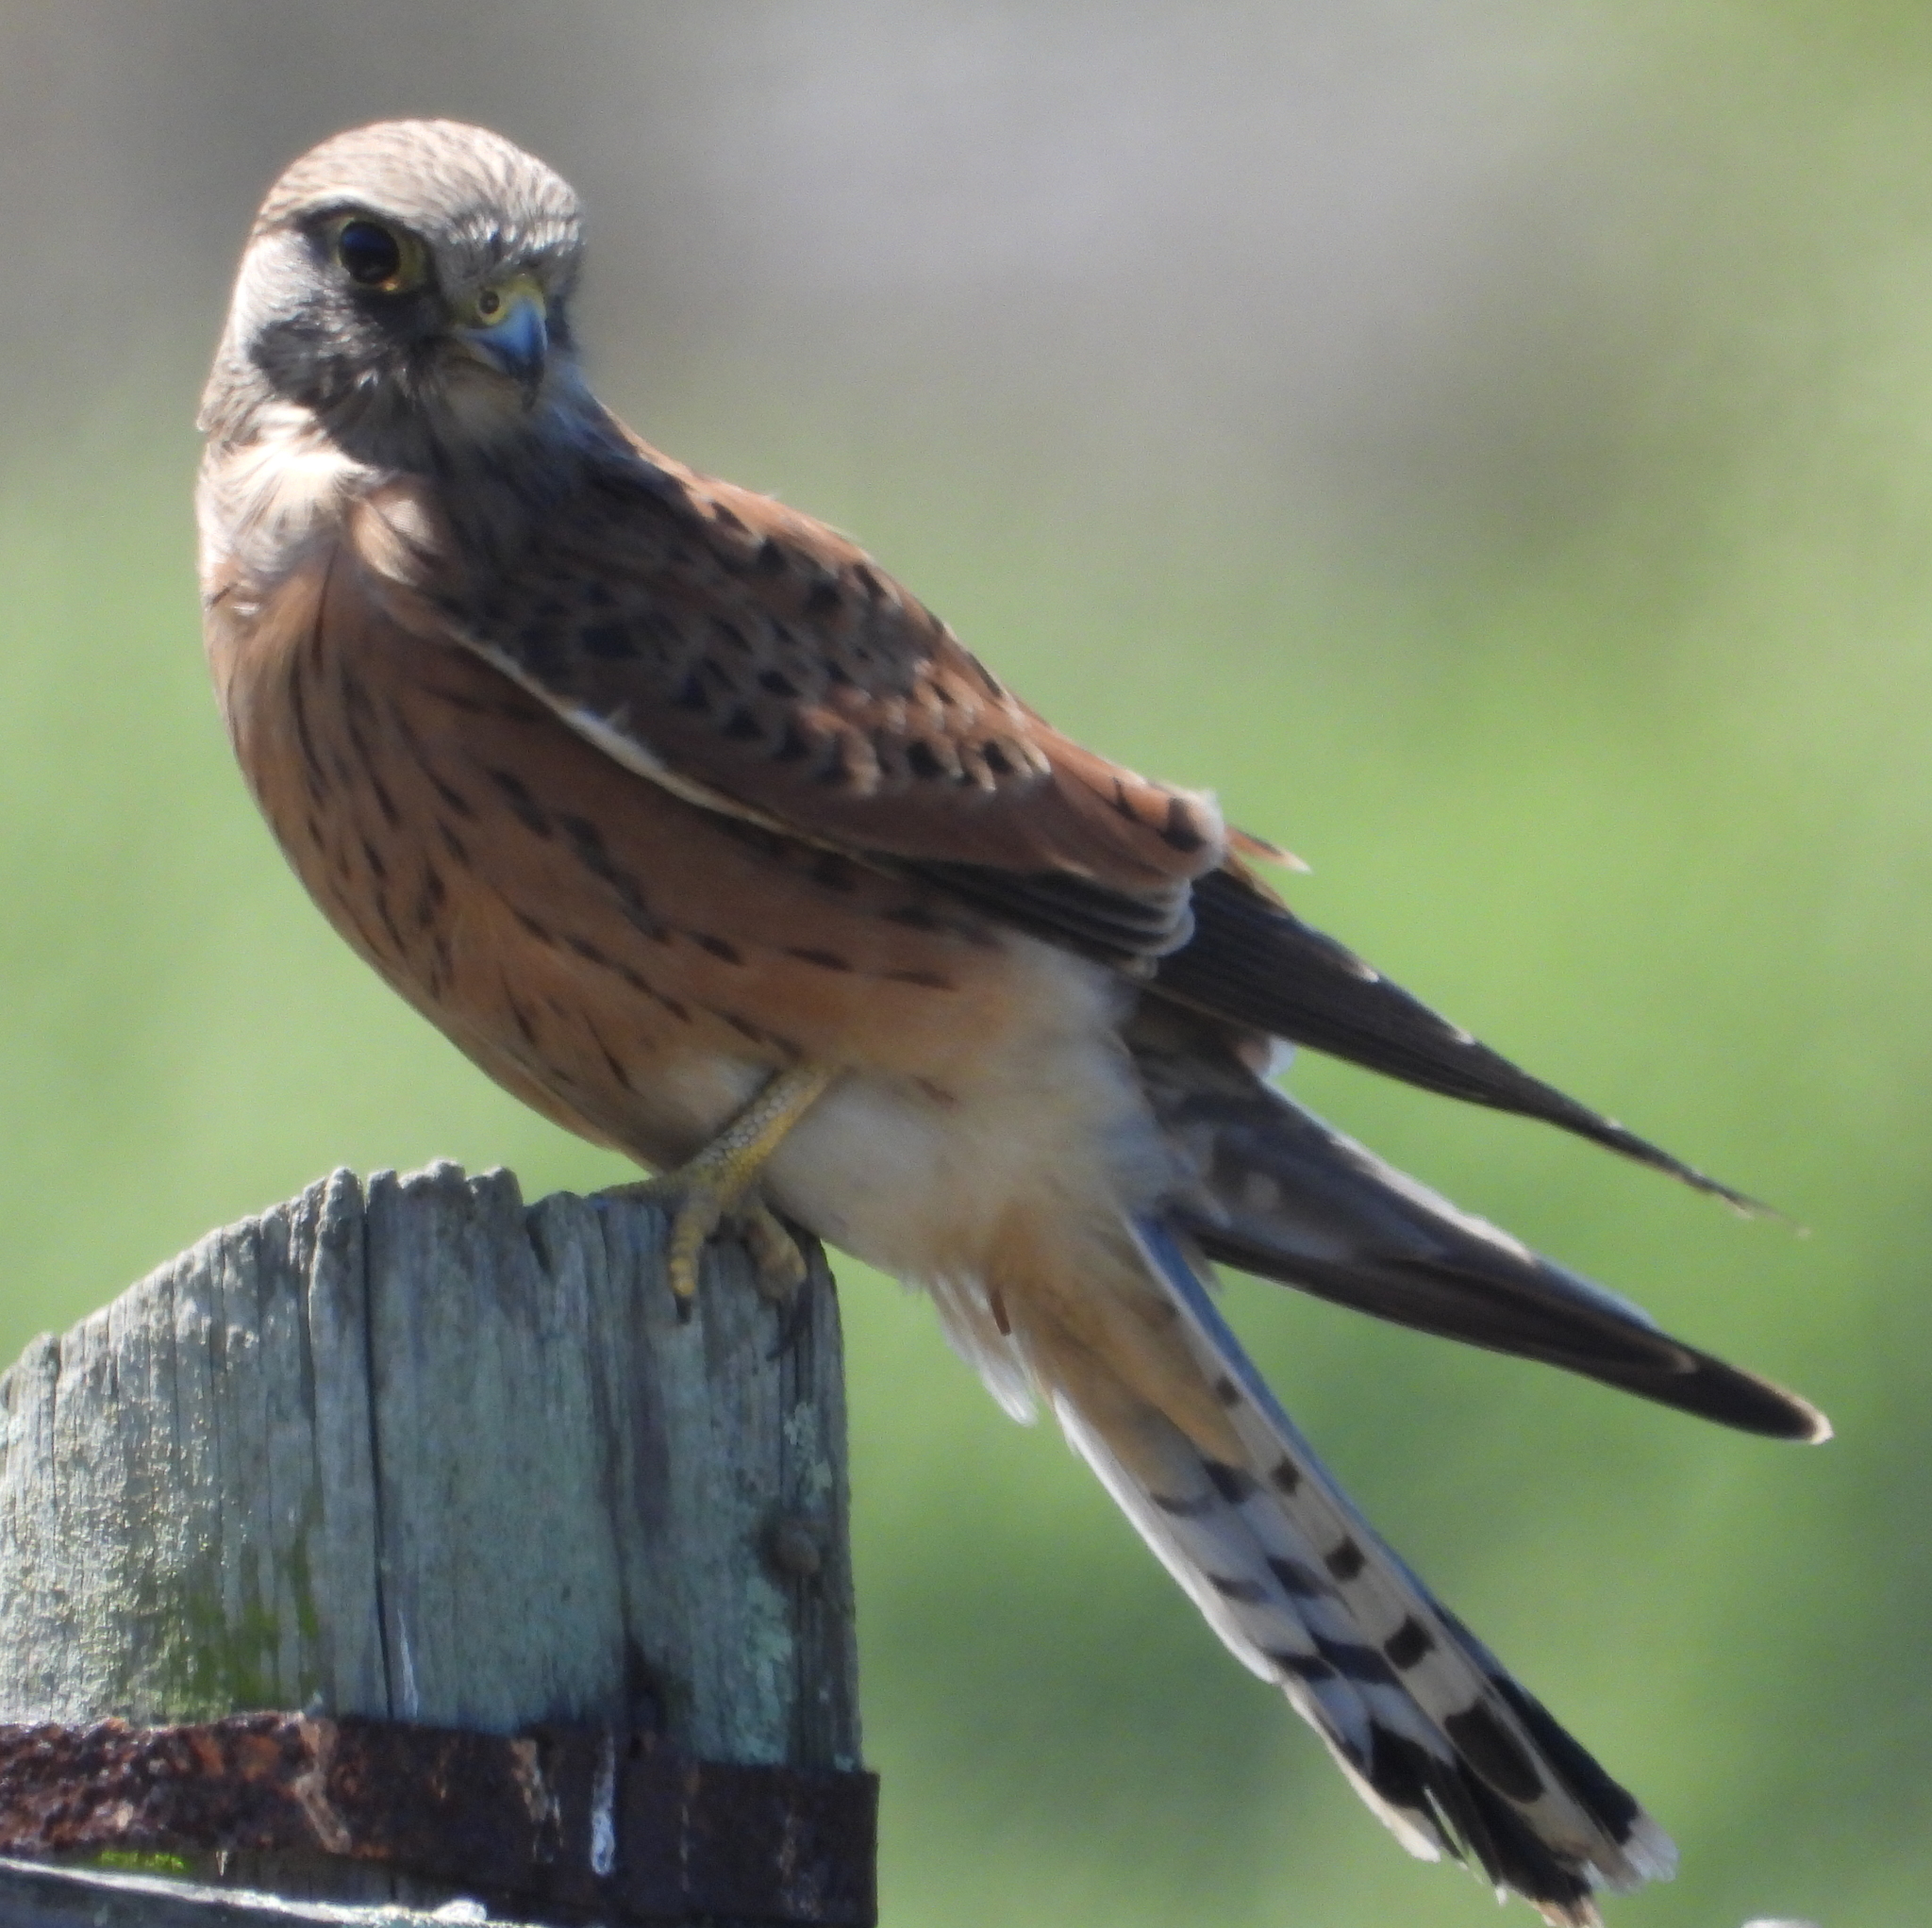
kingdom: Animalia
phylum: Chordata
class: Aves
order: Falconiformes
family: Falconidae
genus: Falco
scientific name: Falco rupicolus
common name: Rock kestrel
